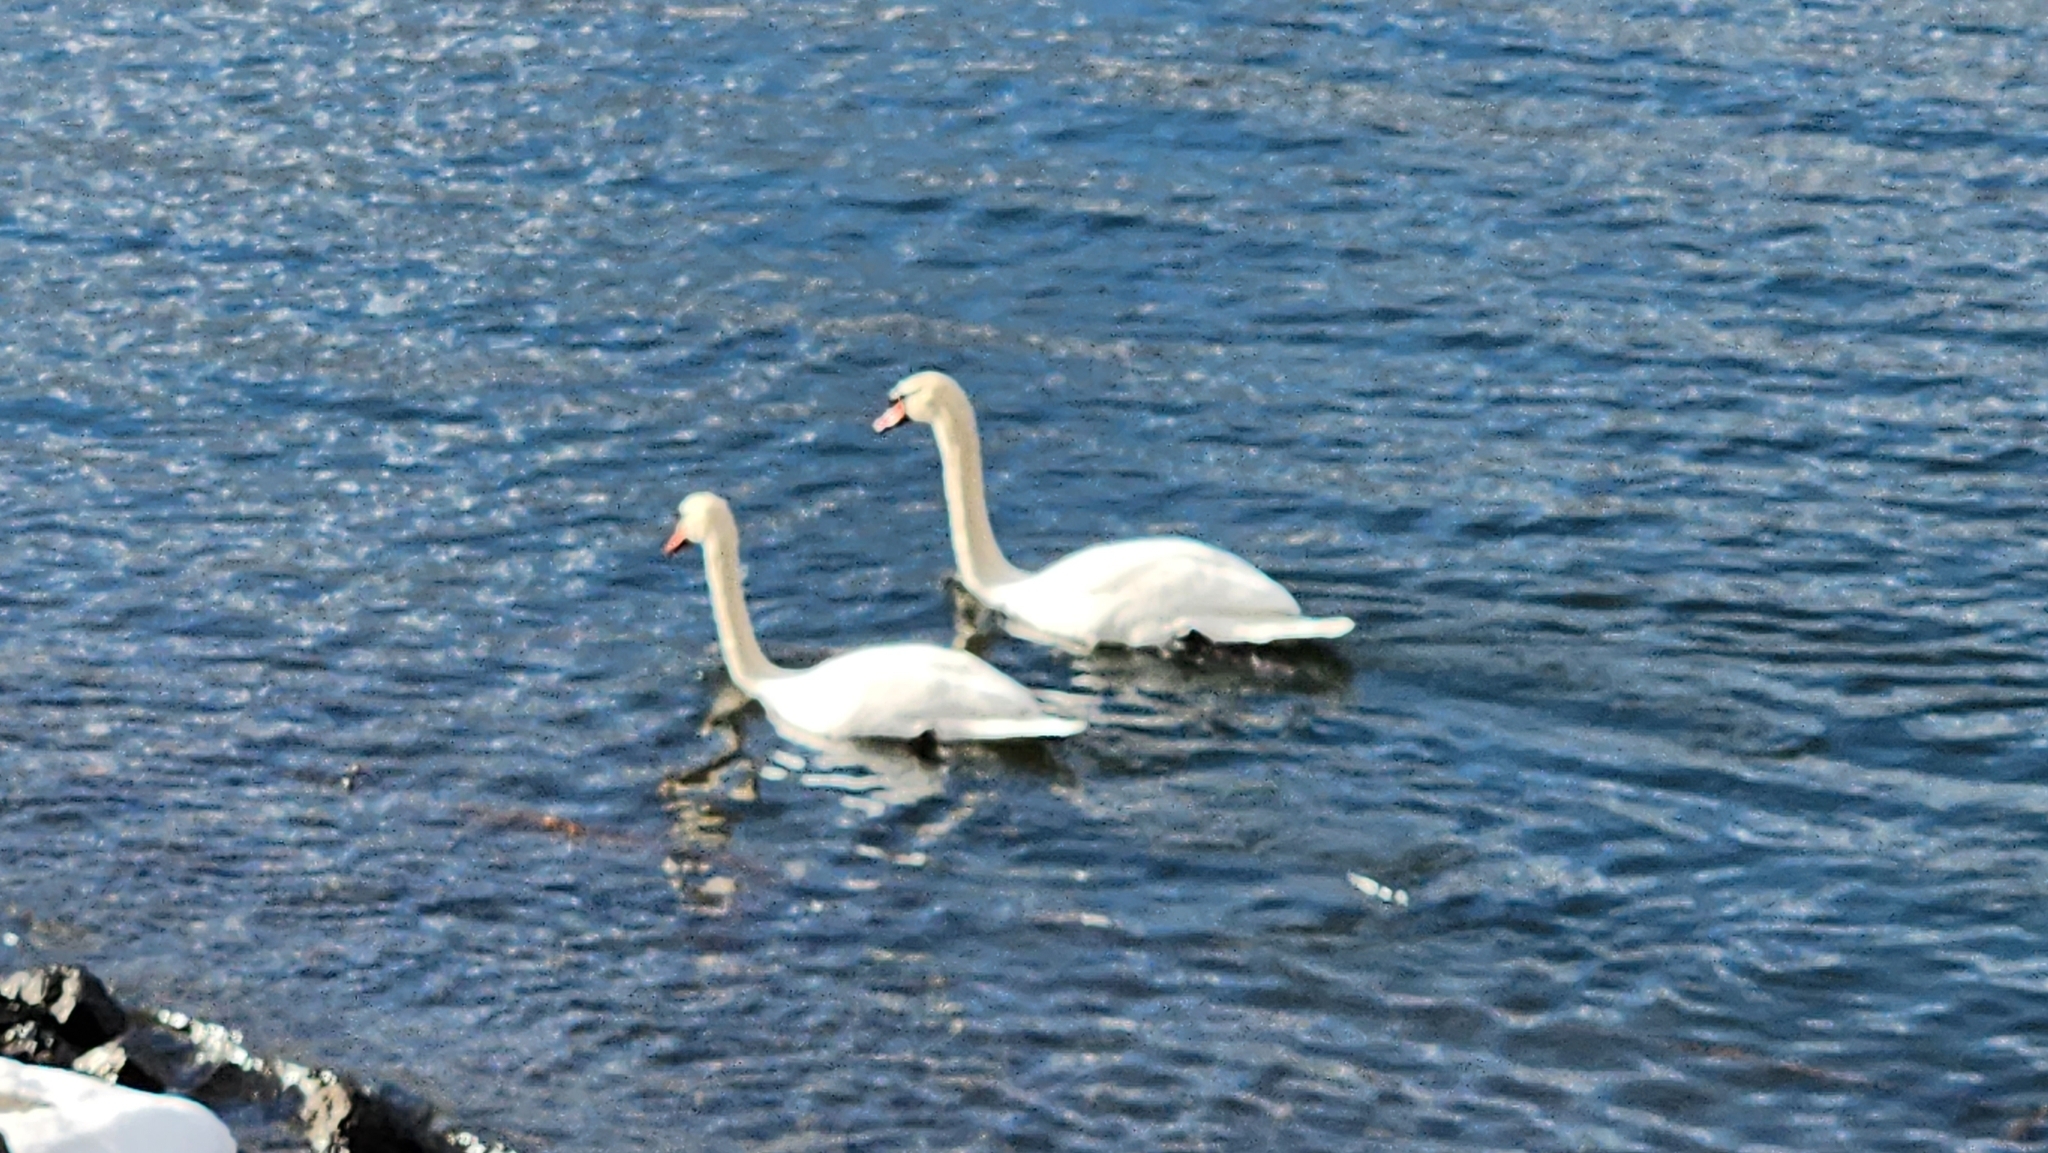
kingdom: Animalia
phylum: Chordata
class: Aves
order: Anseriformes
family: Anatidae
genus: Cygnus
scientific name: Cygnus olor
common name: Mute swan
